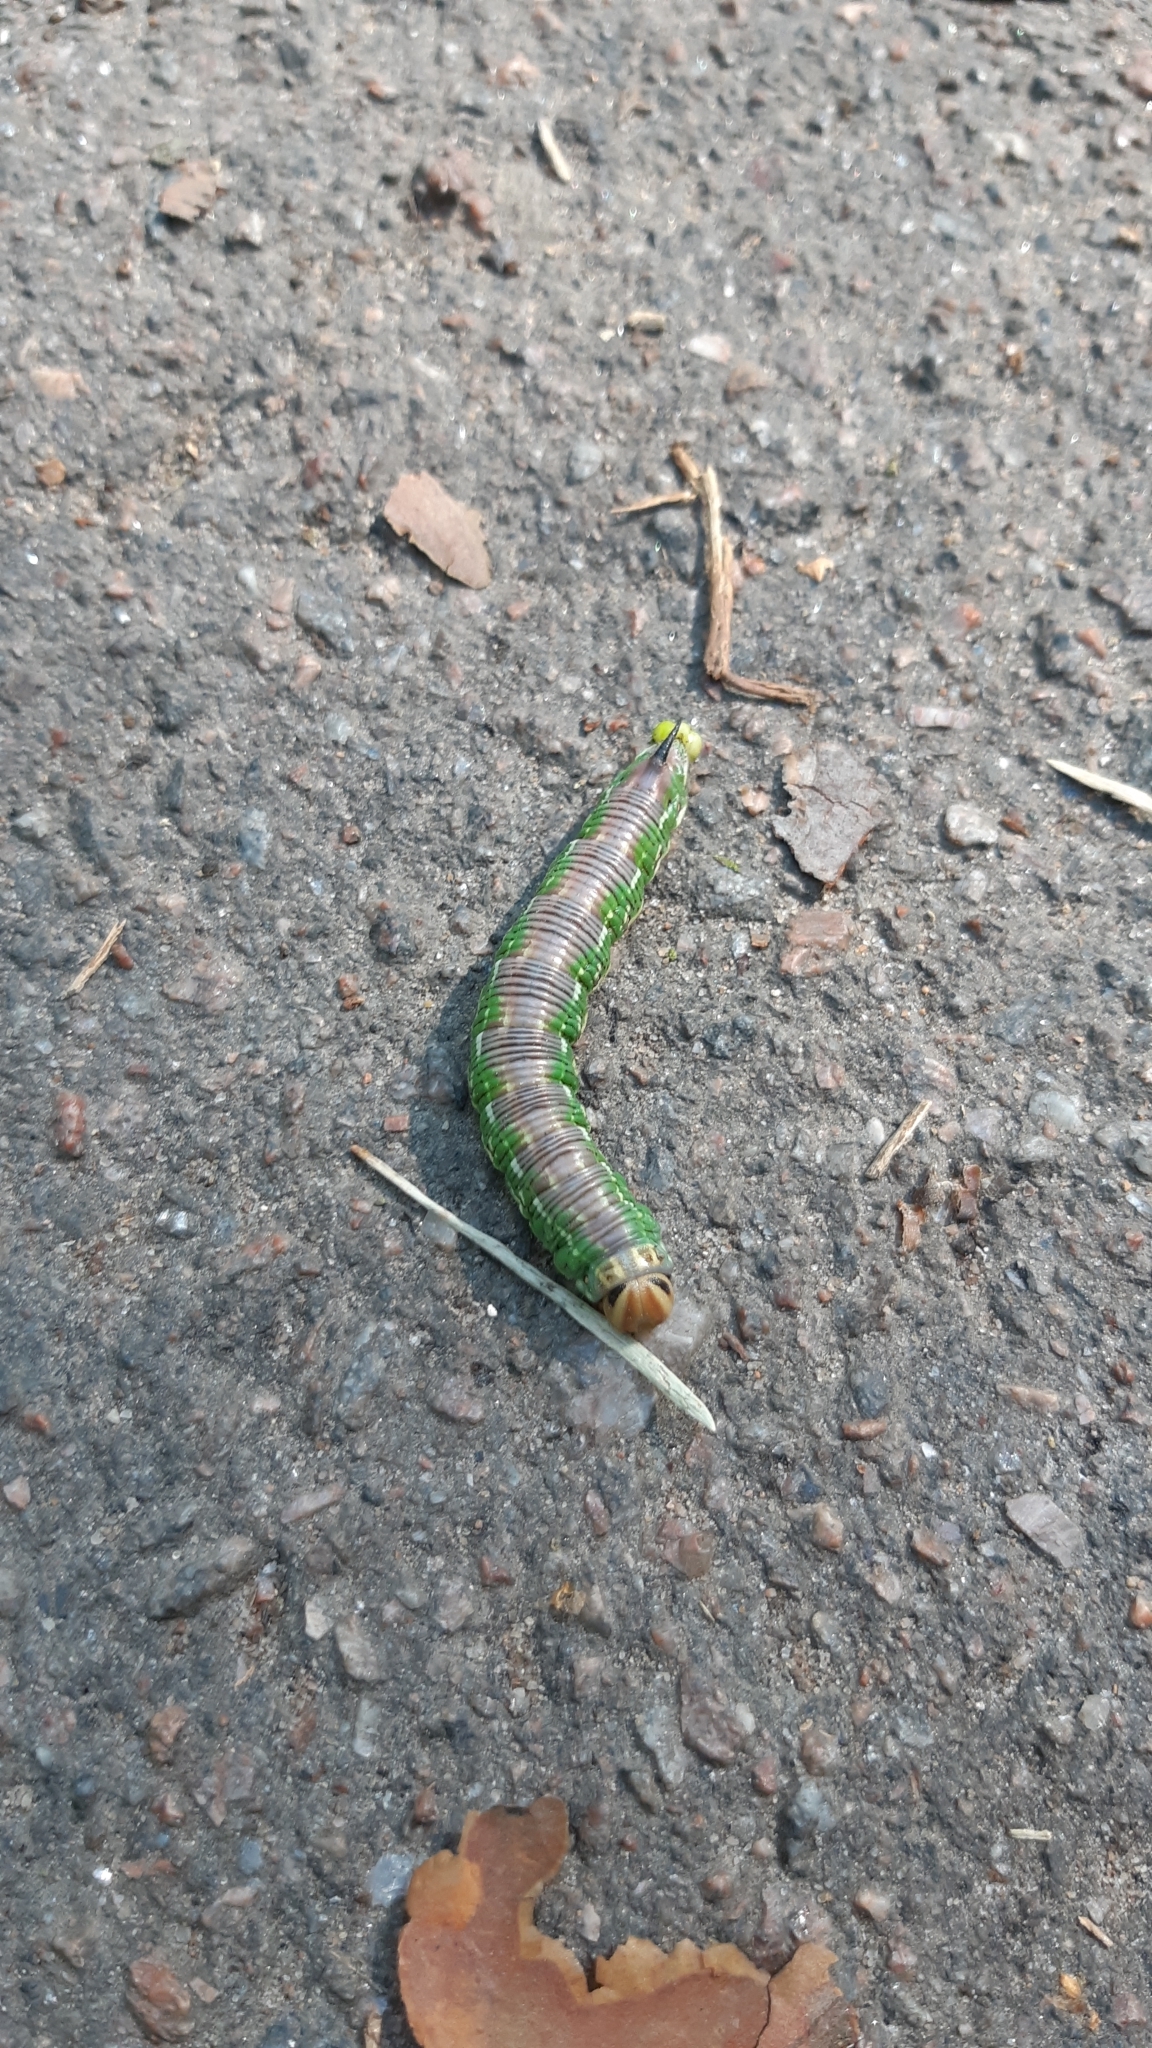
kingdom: Animalia
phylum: Arthropoda
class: Insecta
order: Lepidoptera
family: Sphingidae
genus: Sphinx
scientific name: Sphinx pinastri
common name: Pine hawk-moth
